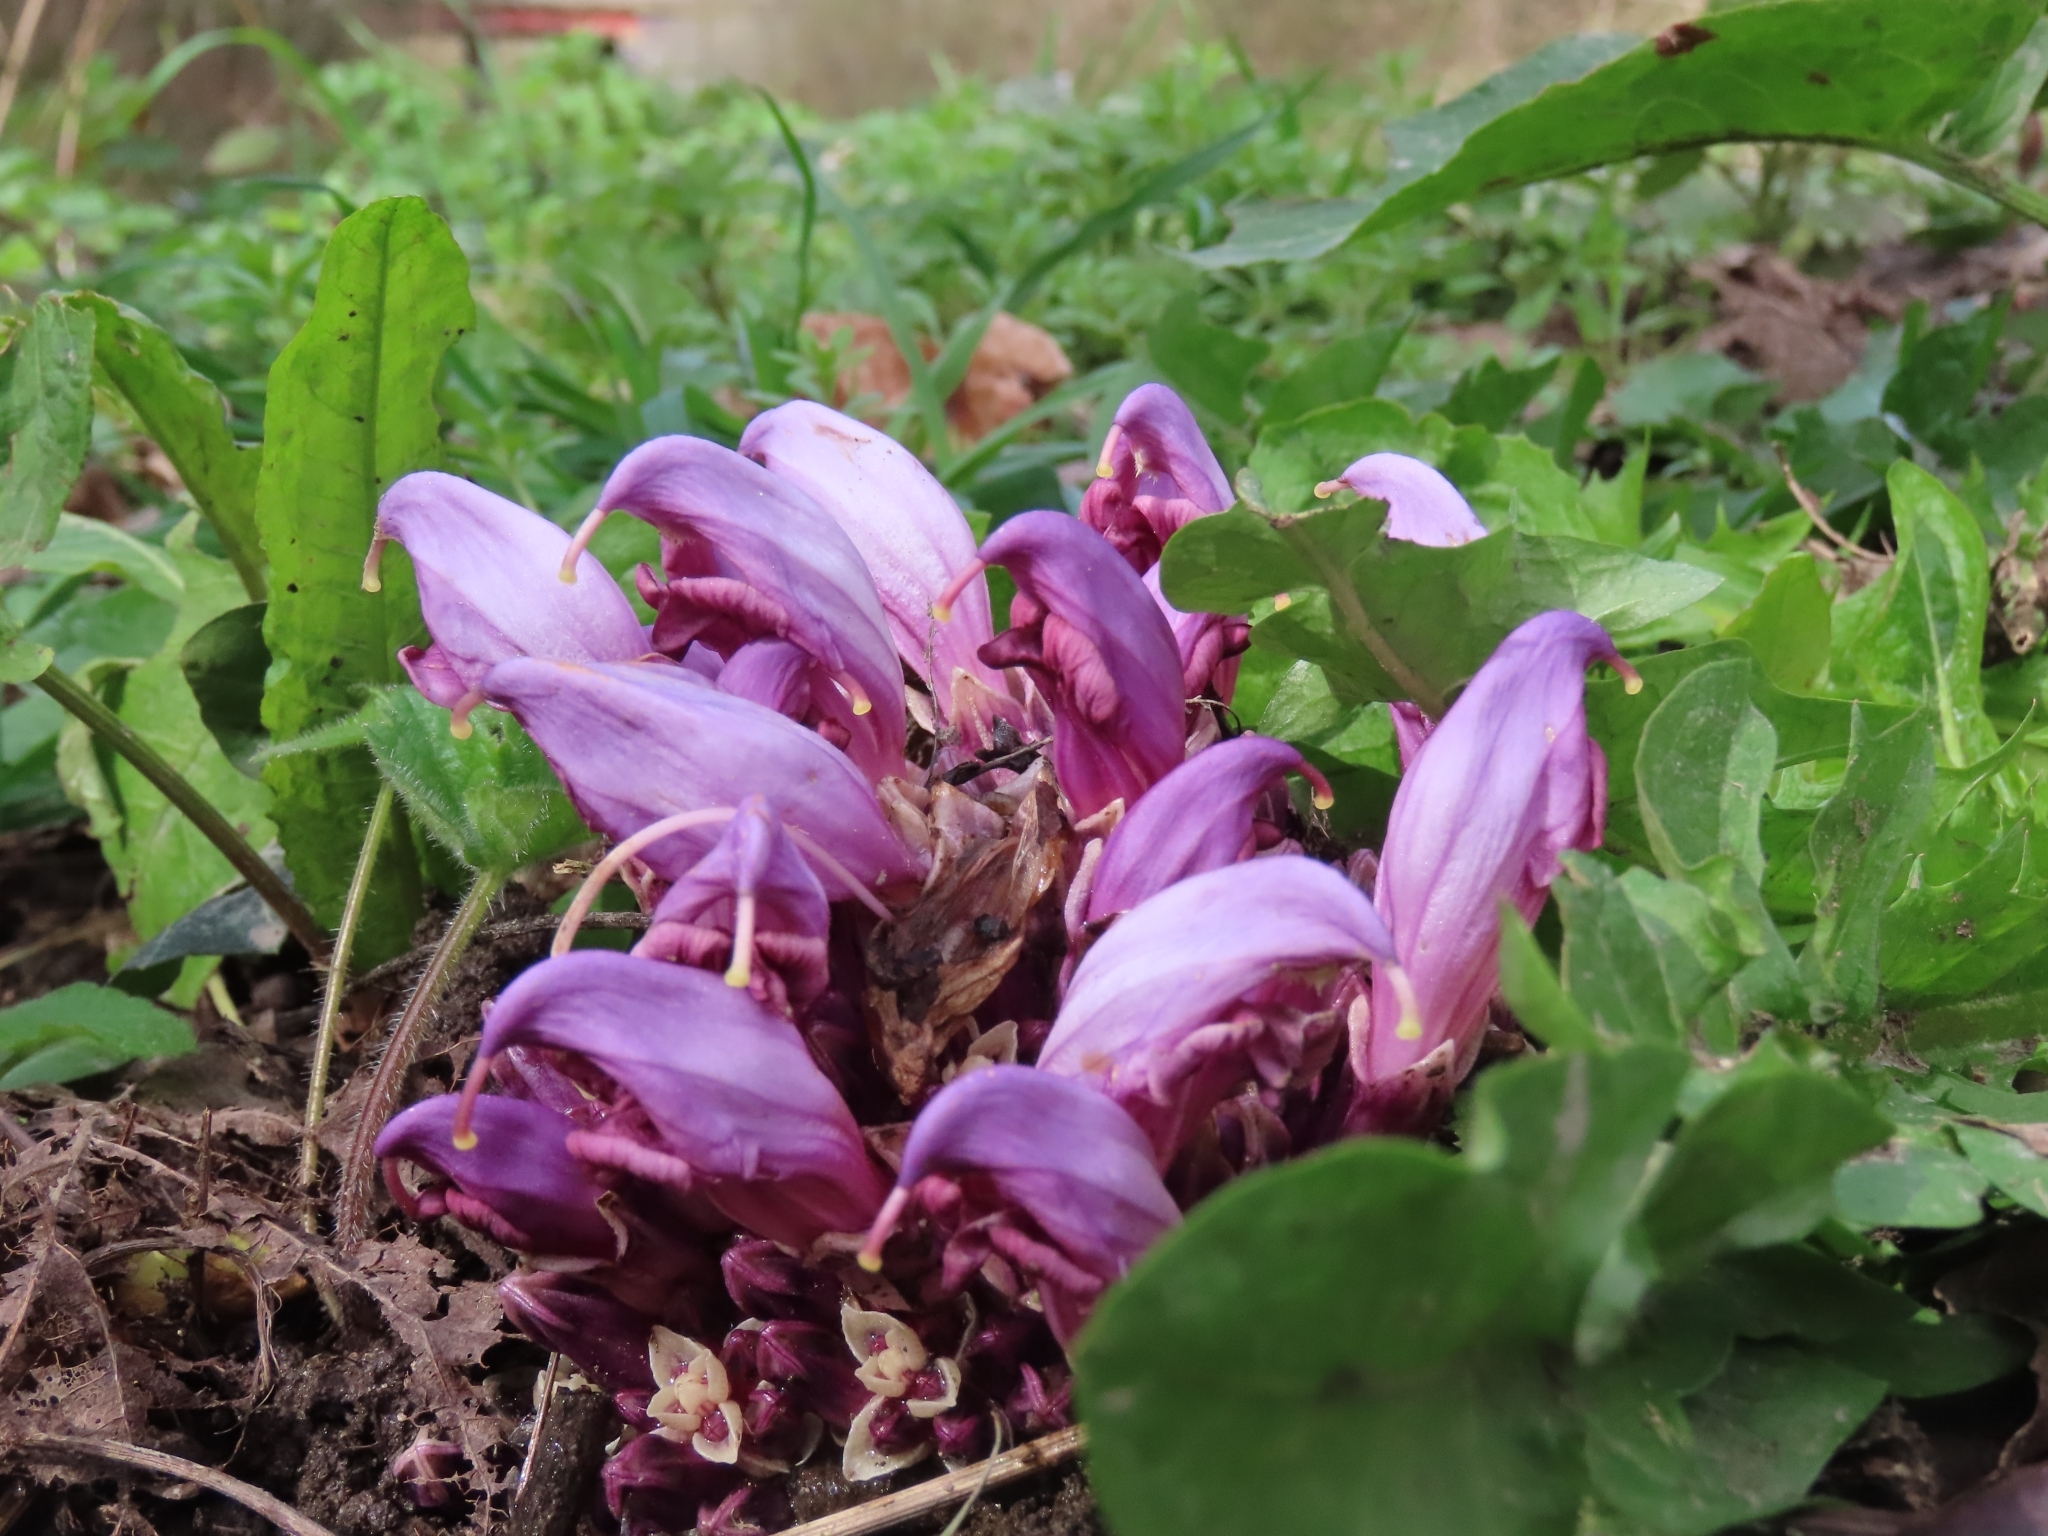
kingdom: Plantae
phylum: Tracheophyta
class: Magnoliopsida
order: Lamiales
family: Orobanchaceae
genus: Lathraea
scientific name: Lathraea clandestina
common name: Purple toothwort
